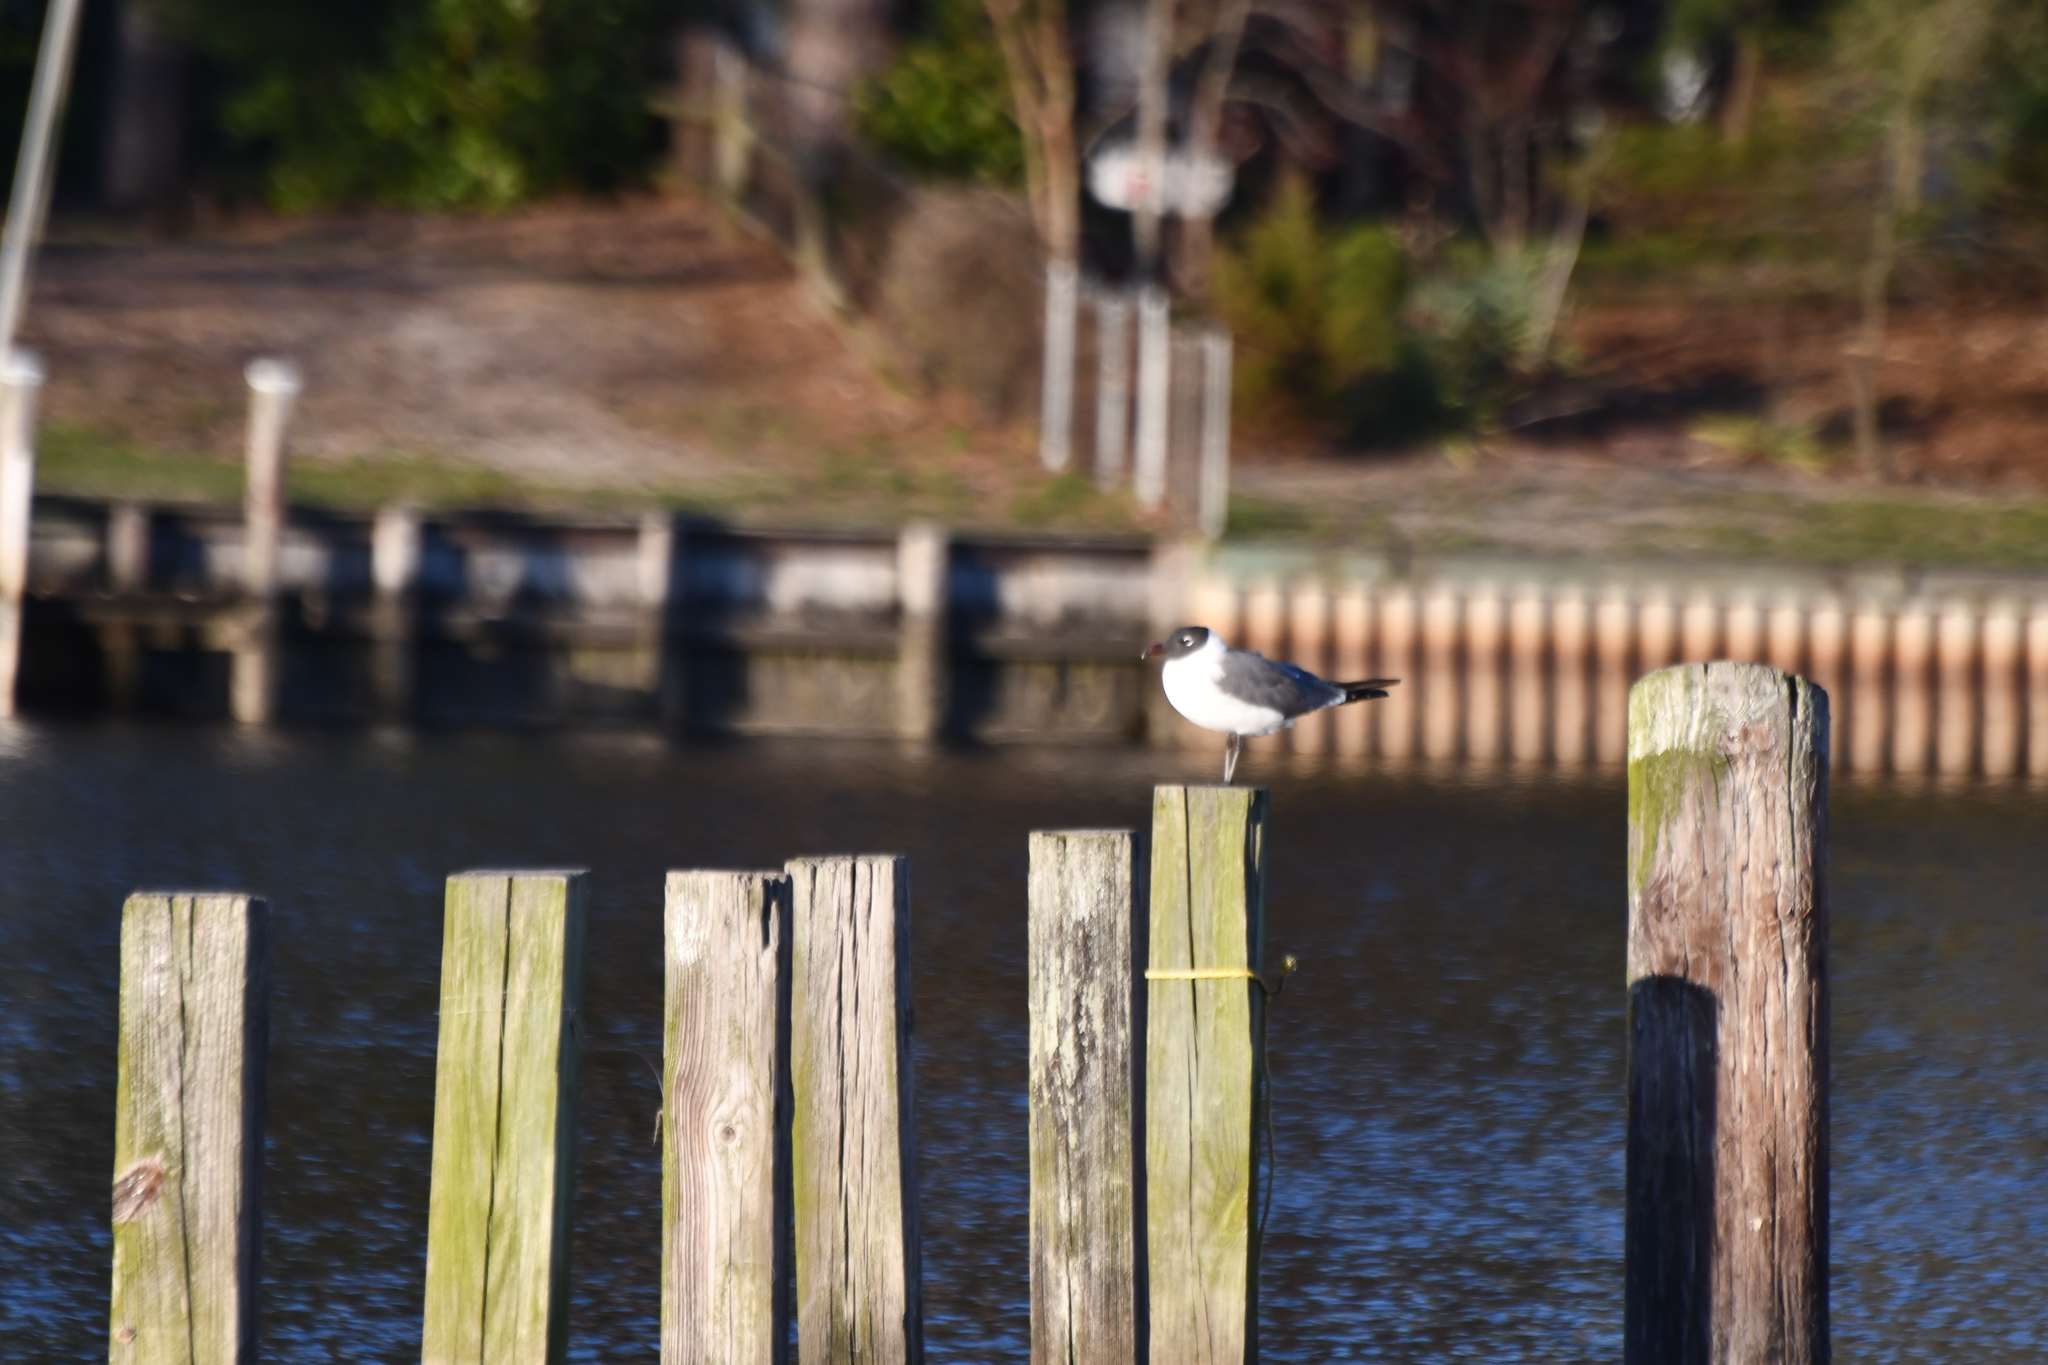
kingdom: Animalia
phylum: Chordata
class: Aves
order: Charadriiformes
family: Laridae
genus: Leucophaeus
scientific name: Leucophaeus atricilla
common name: Laughing gull
